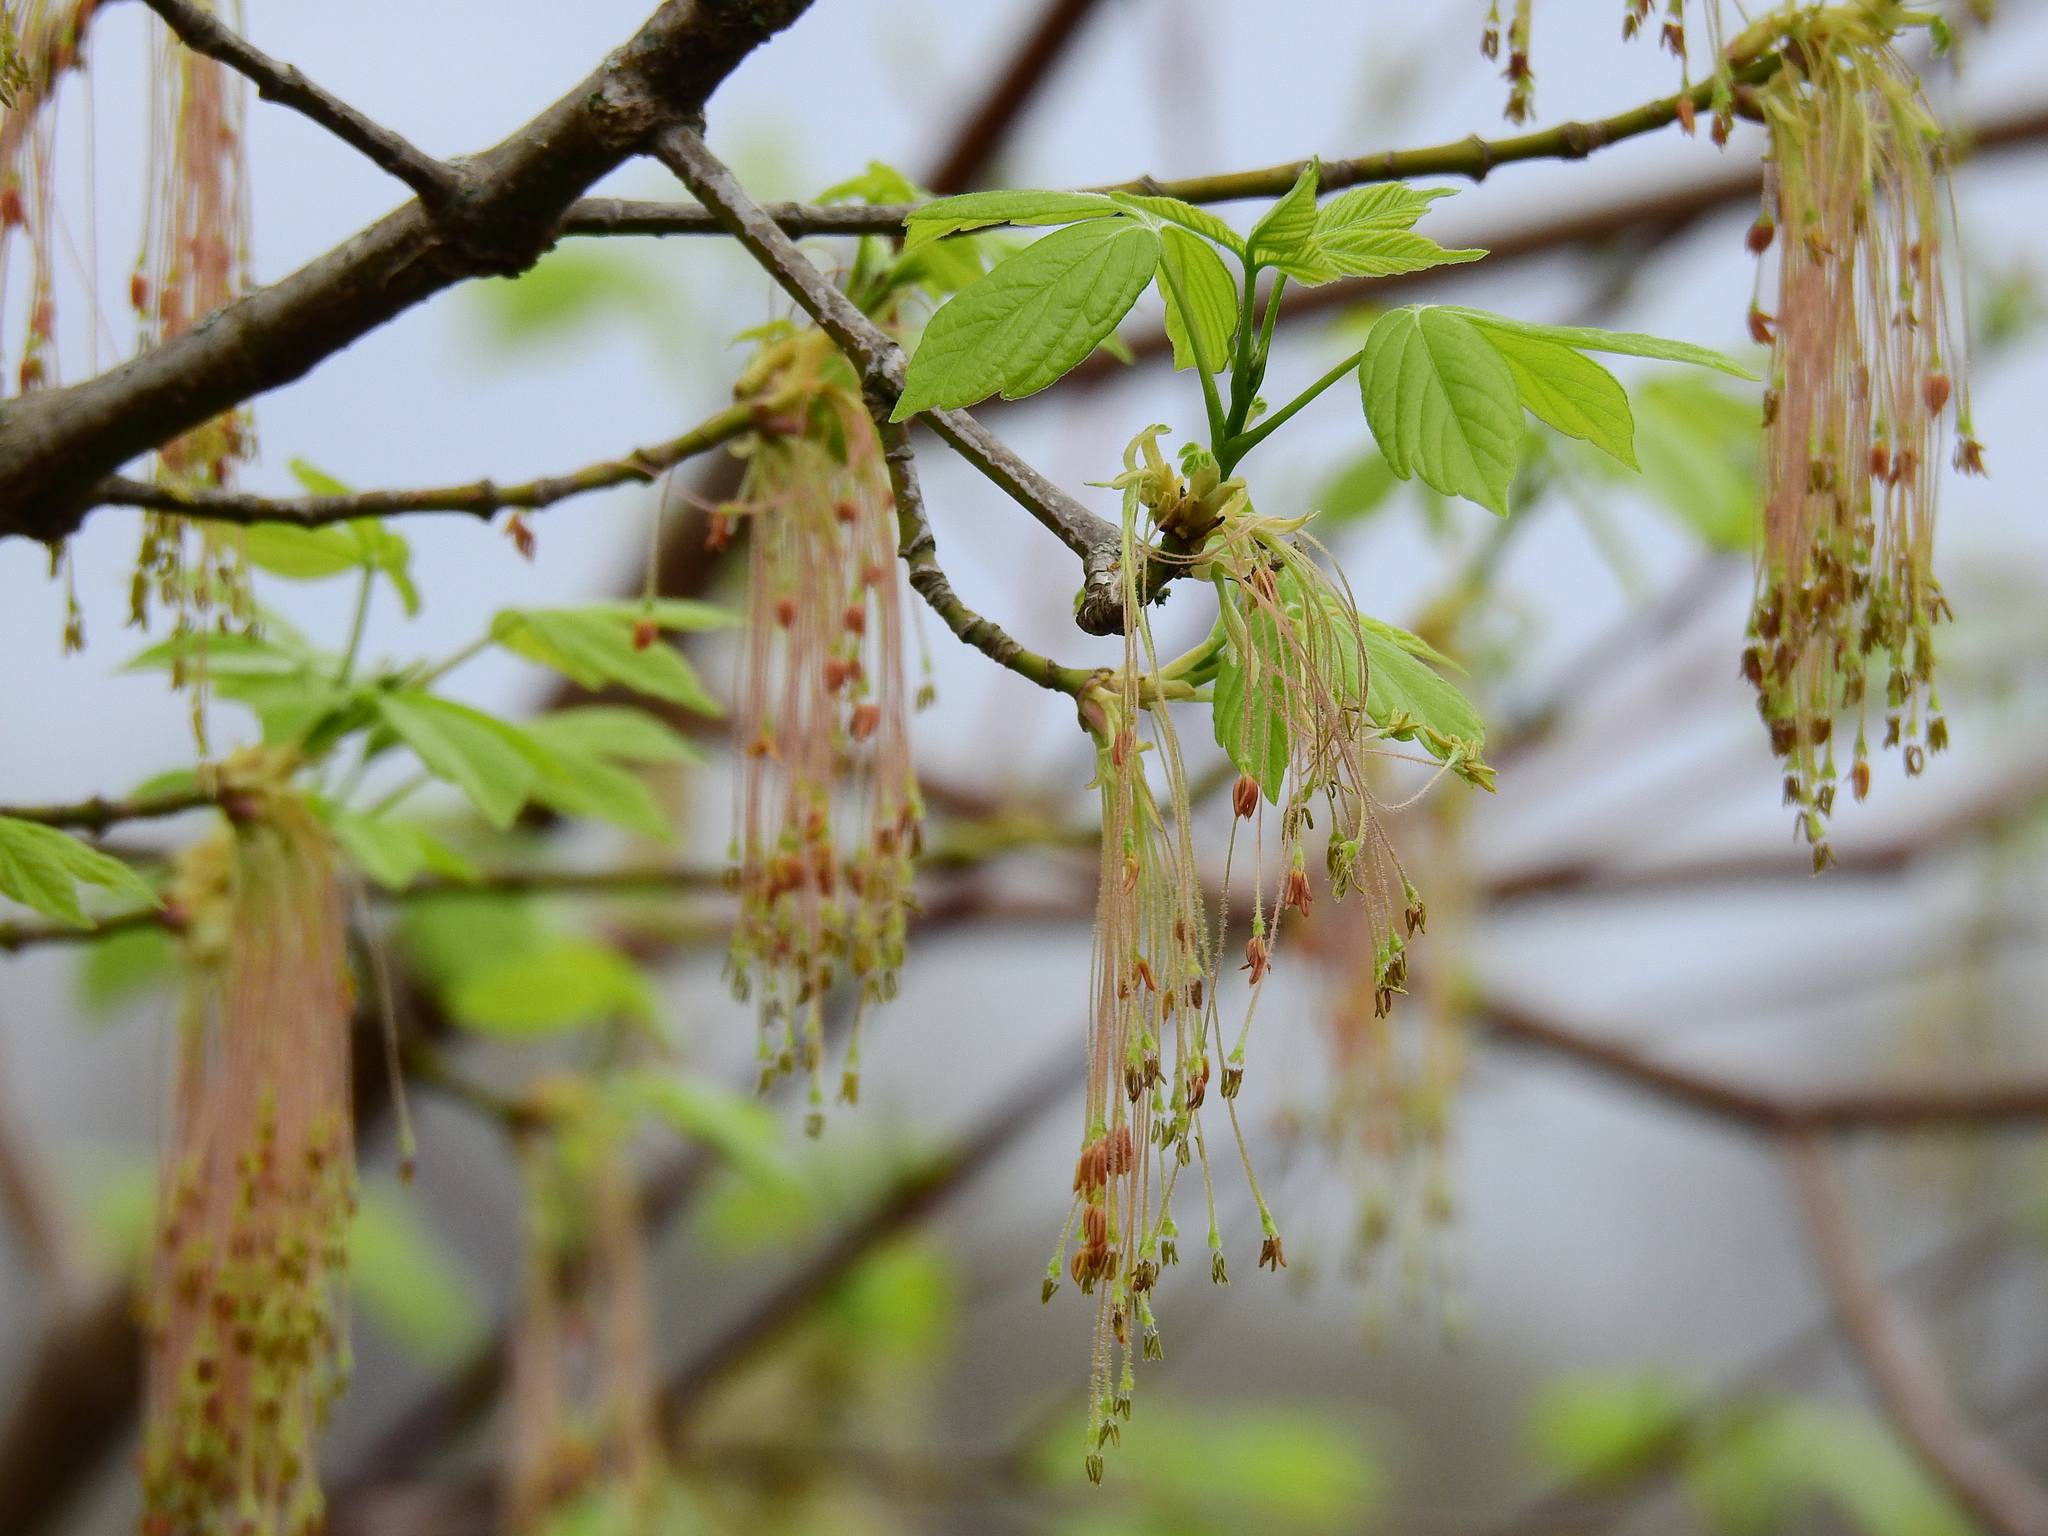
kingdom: Plantae
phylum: Tracheophyta
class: Magnoliopsida
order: Sapindales
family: Sapindaceae
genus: Acer
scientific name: Acer negundo
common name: Ashleaf maple
